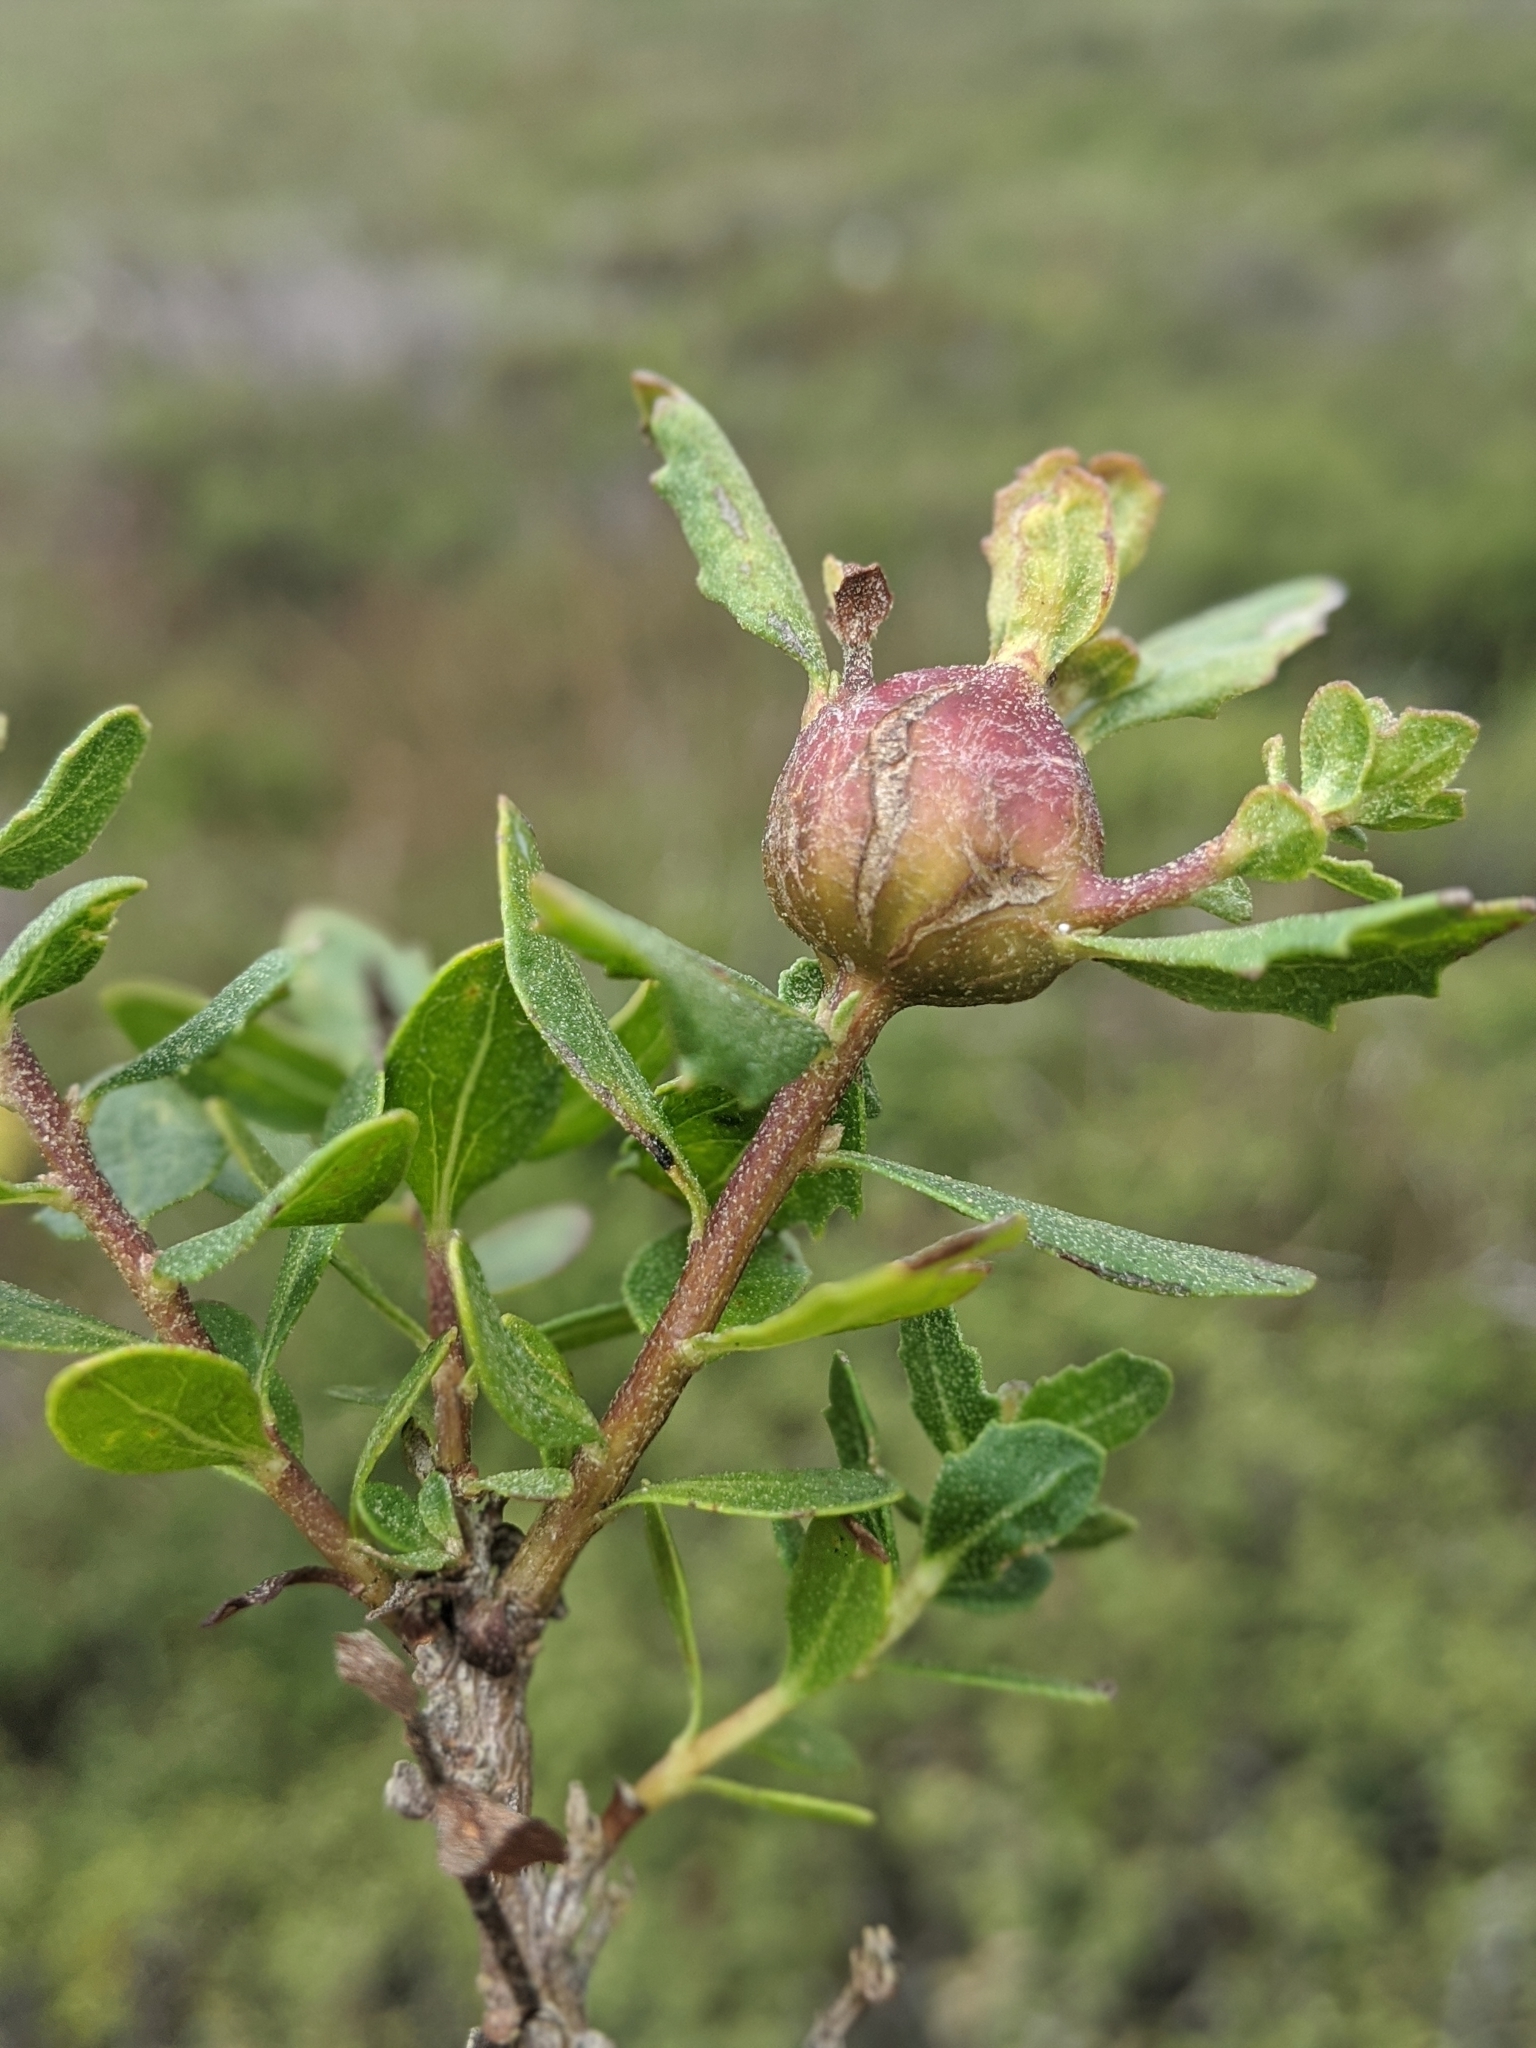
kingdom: Animalia
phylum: Arthropoda
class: Insecta
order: Diptera
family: Cecidomyiidae
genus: Rhopalomyia
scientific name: Rhopalomyia californica
